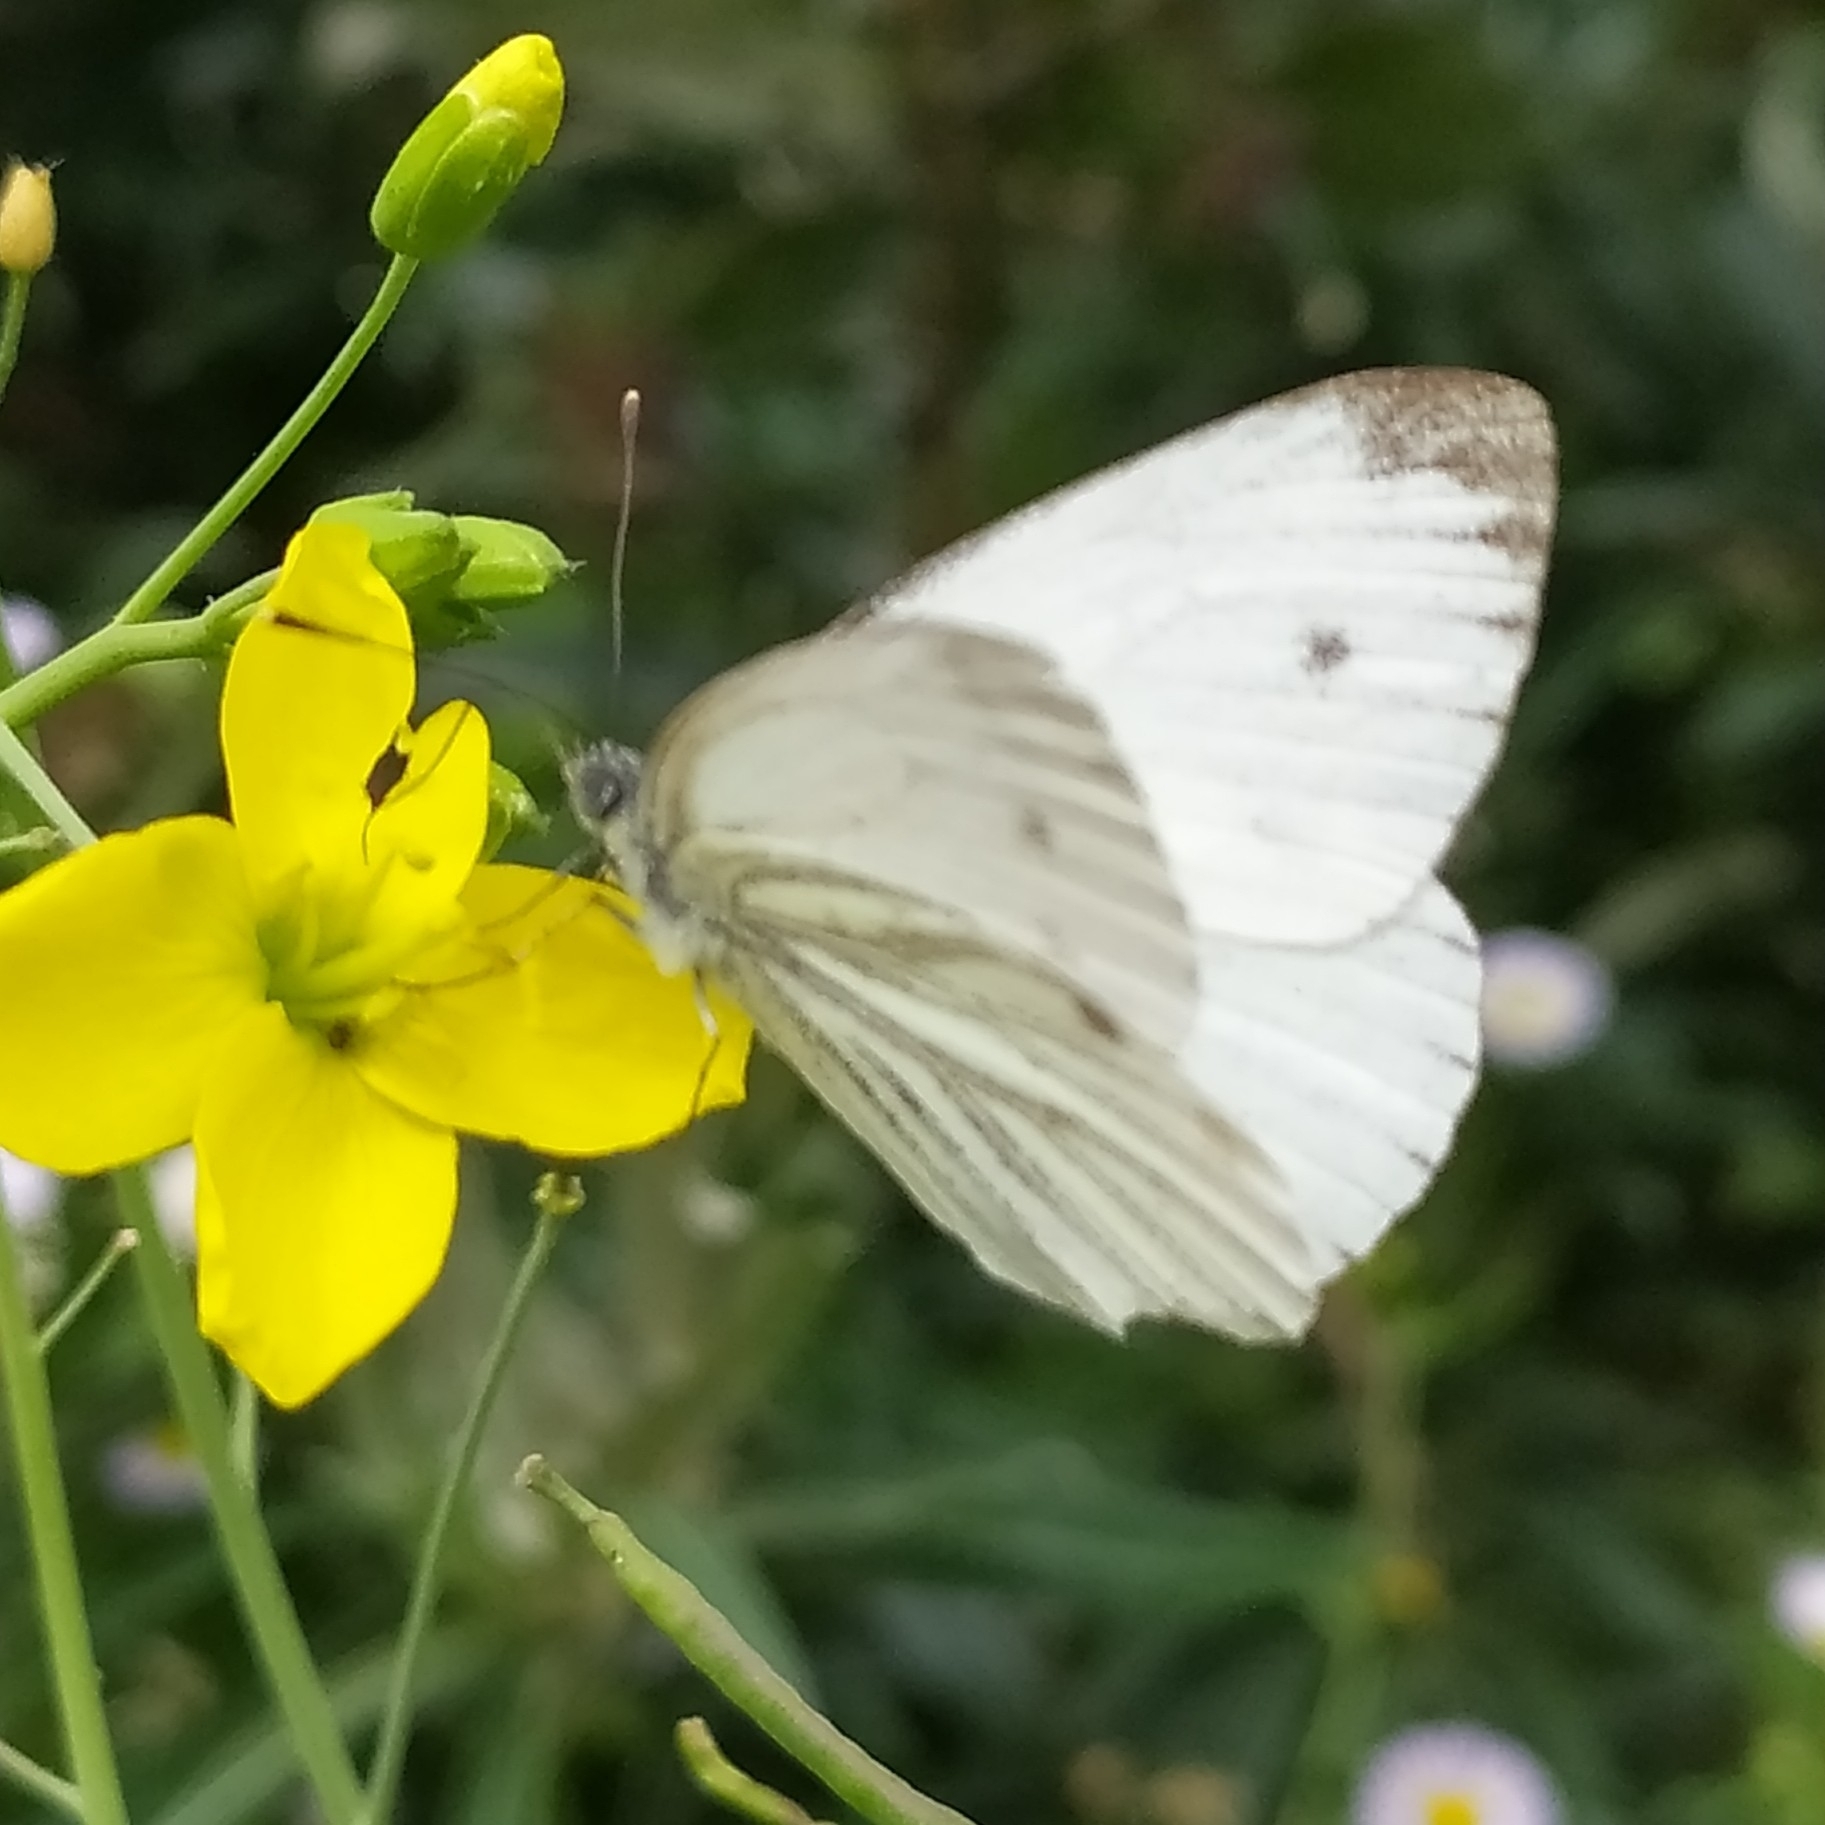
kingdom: Animalia
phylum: Arthropoda
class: Insecta
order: Lepidoptera
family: Pieridae
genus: Pieris
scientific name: Pieris napi
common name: Green-veined white
